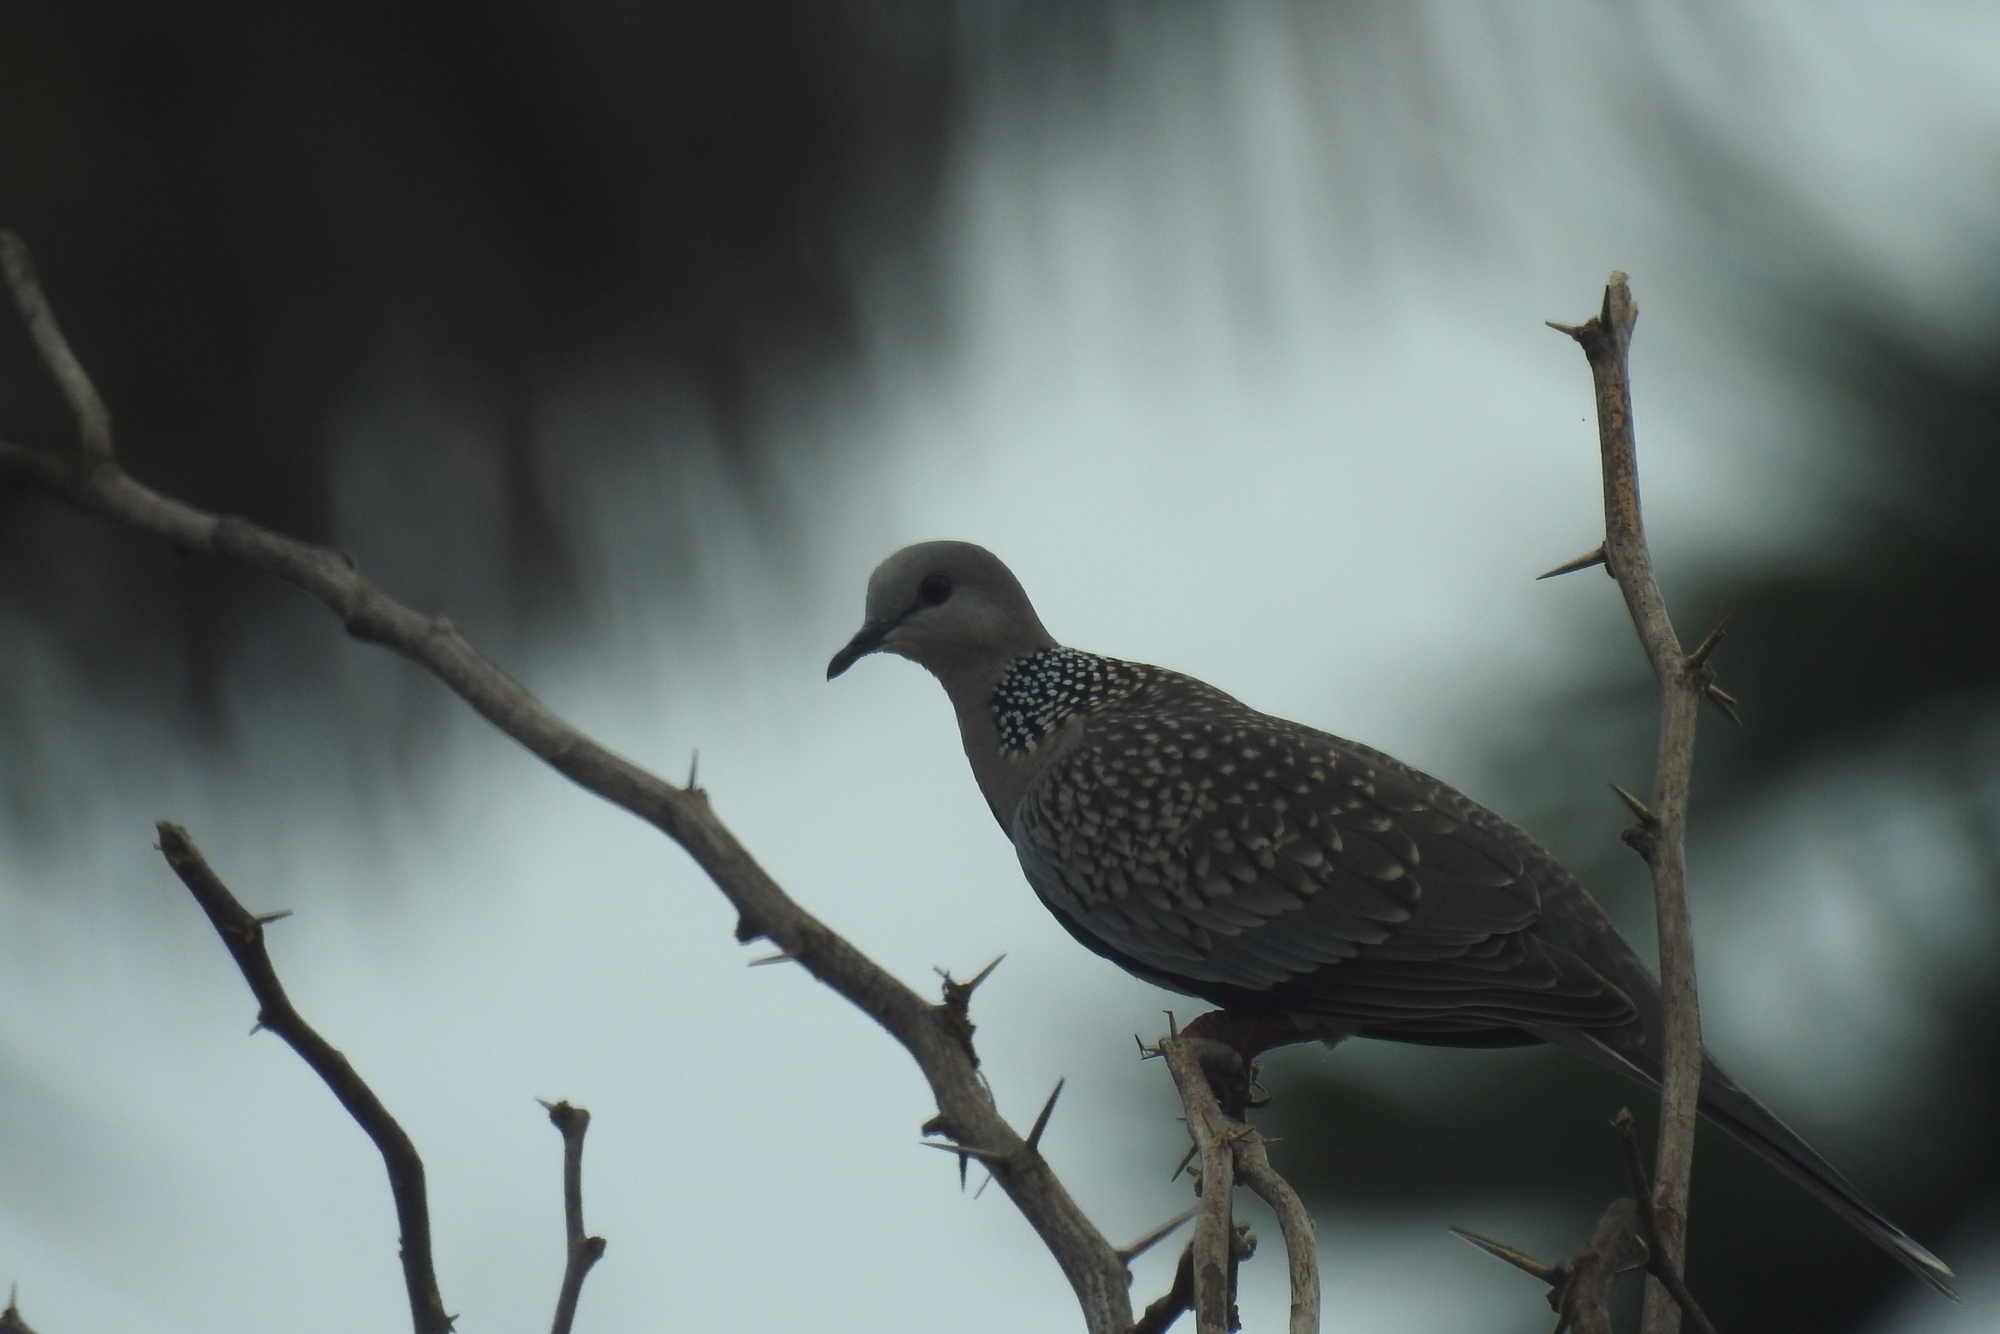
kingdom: Animalia
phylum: Chordata
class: Aves
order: Columbiformes
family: Columbidae
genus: Spilopelia
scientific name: Spilopelia chinensis
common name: Spotted dove
